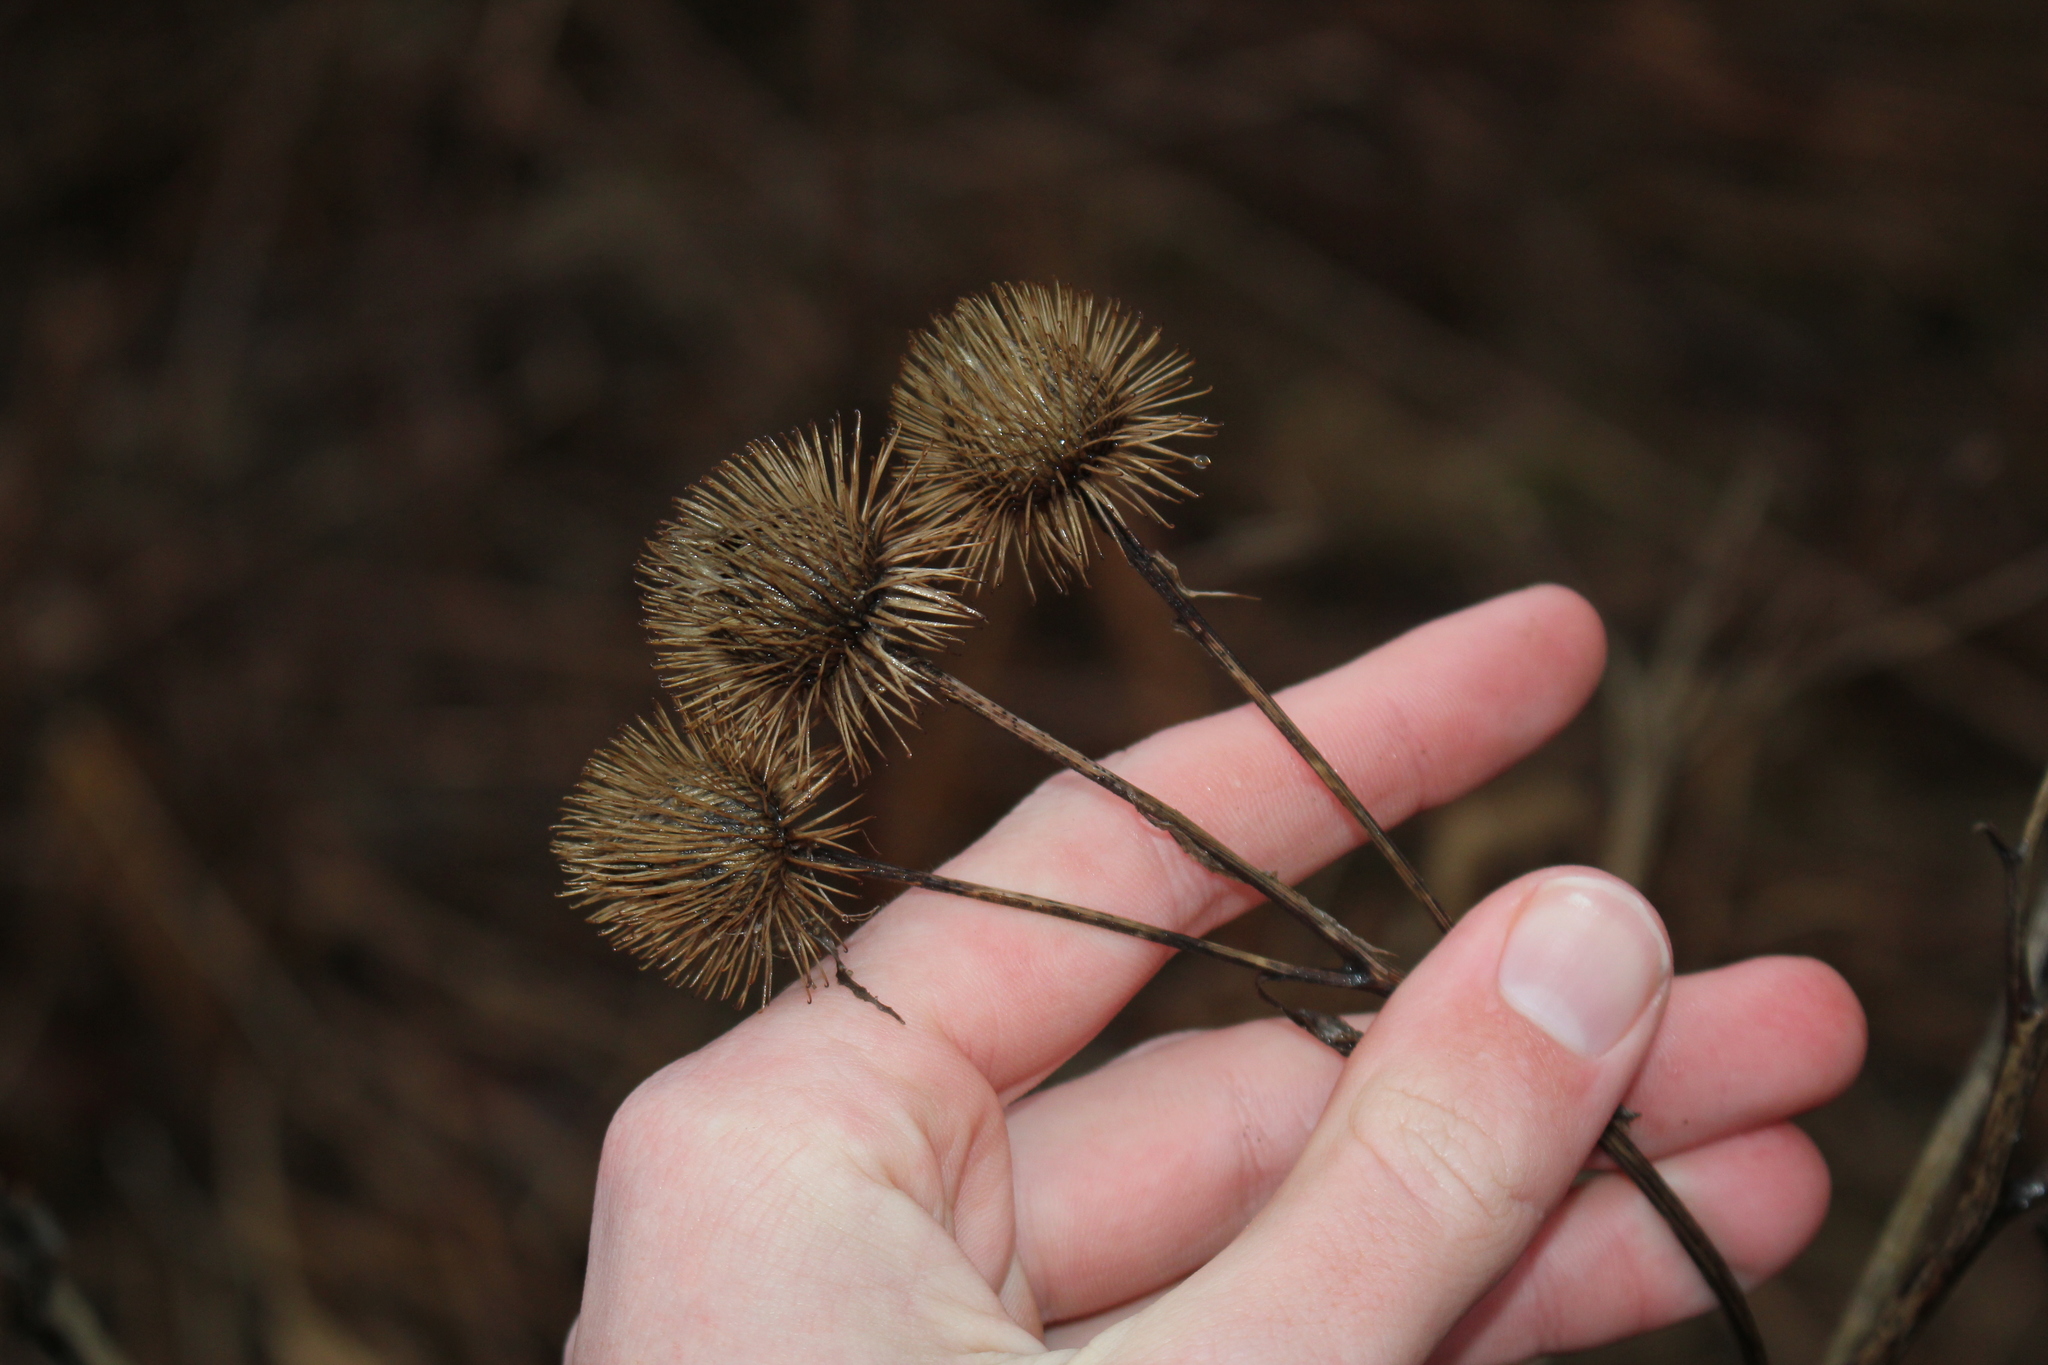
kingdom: Plantae
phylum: Tracheophyta
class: Magnoliopsida
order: Asterales
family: Asteraceae
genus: Arctium
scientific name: Arctium lappa
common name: Greater burdock
